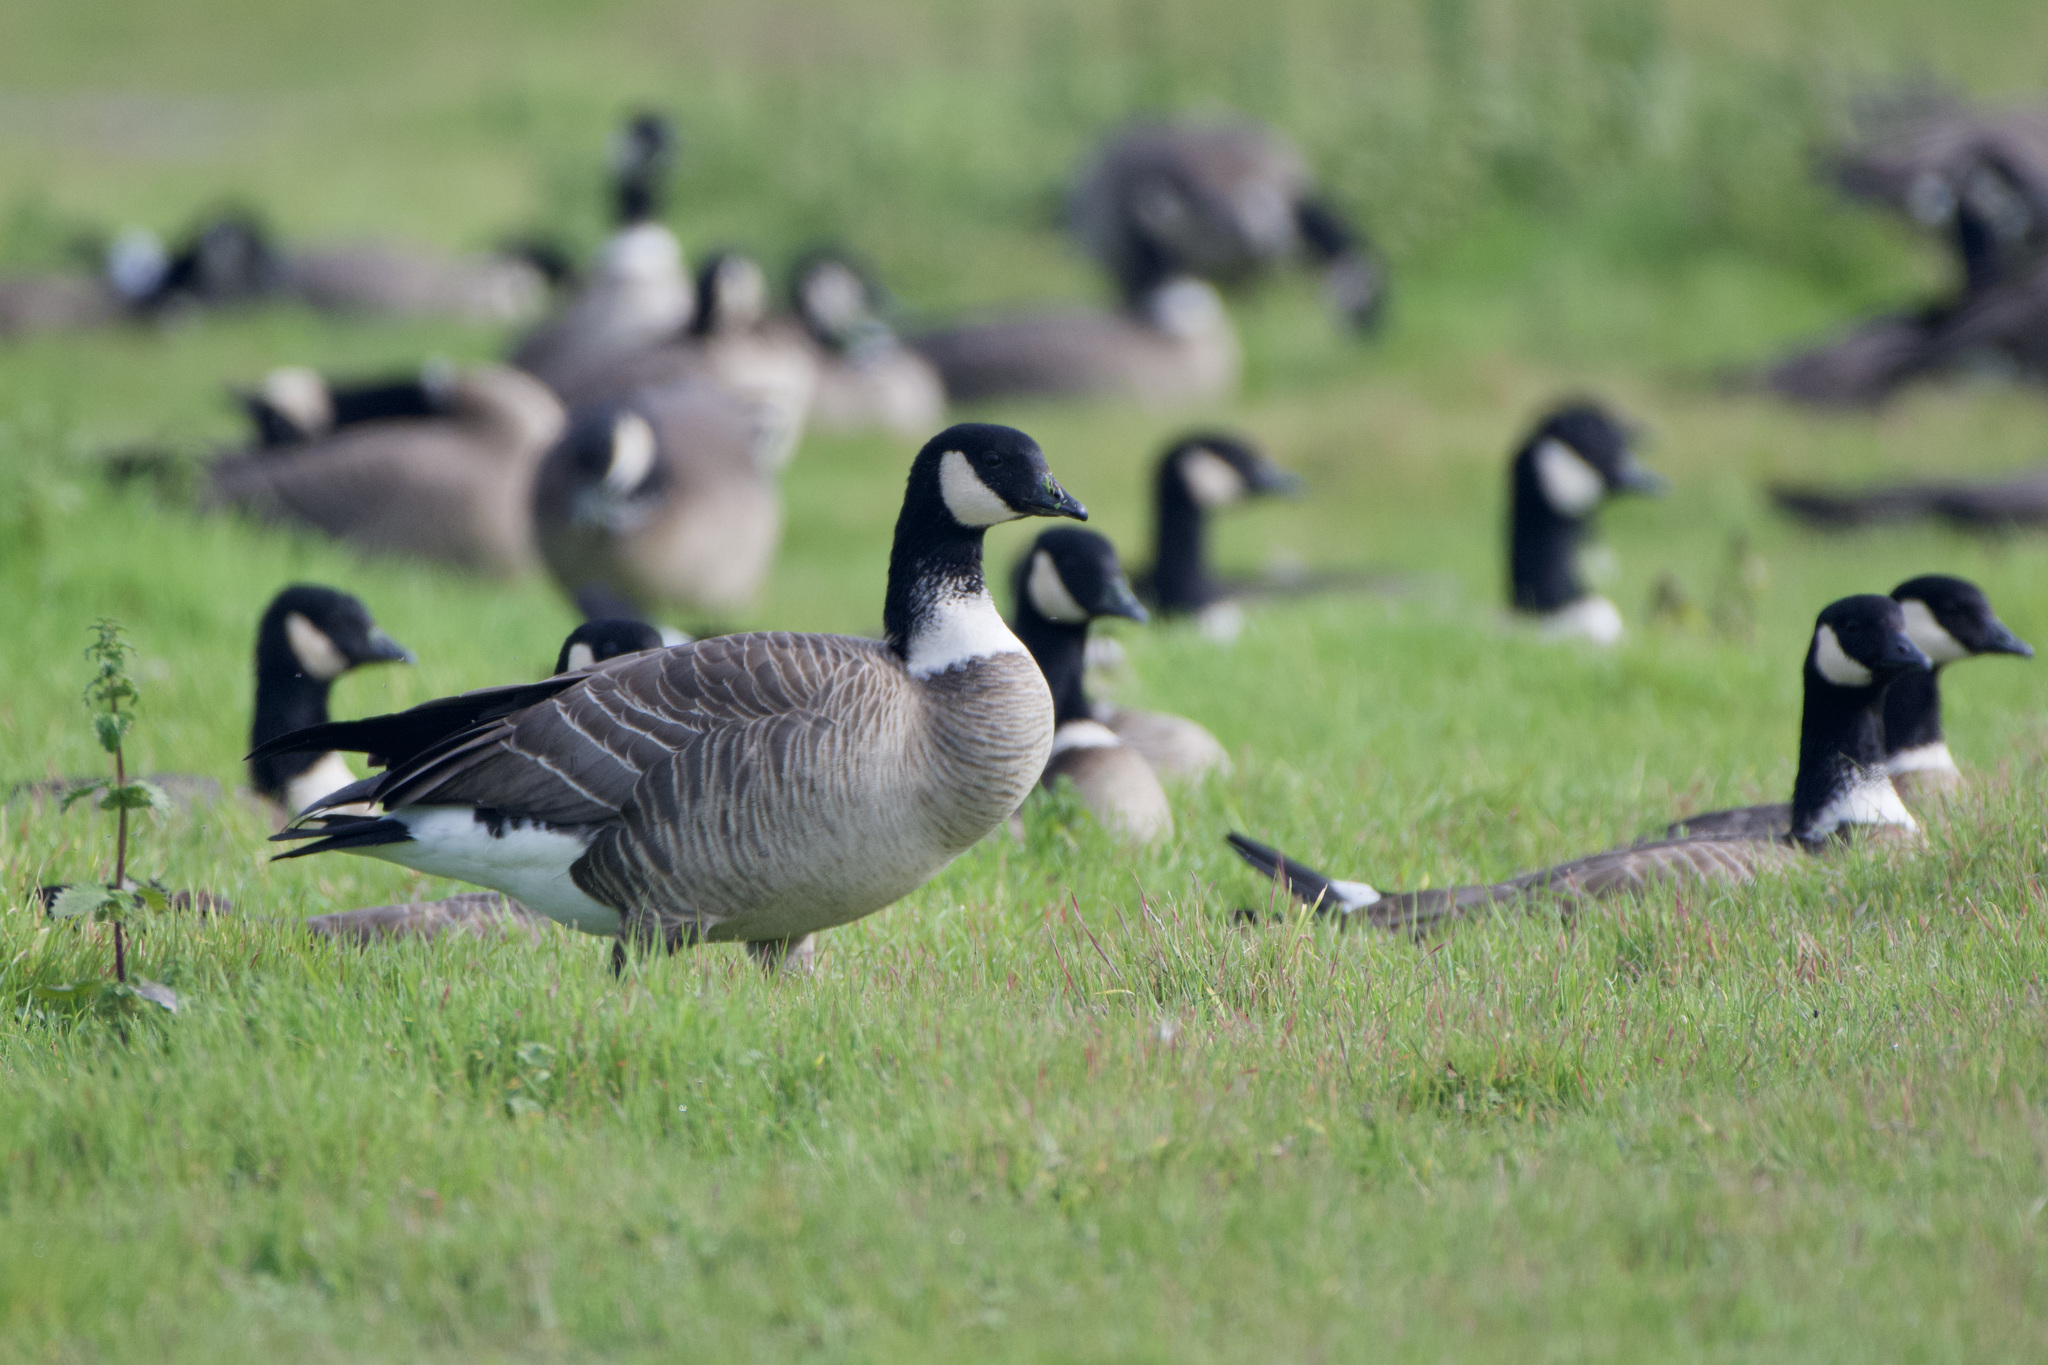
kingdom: Animalia
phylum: Chordata
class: Aves
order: Anseriformes
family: Anatidae
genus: Branta
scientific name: Branta hutchinsii
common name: Cackling goose
